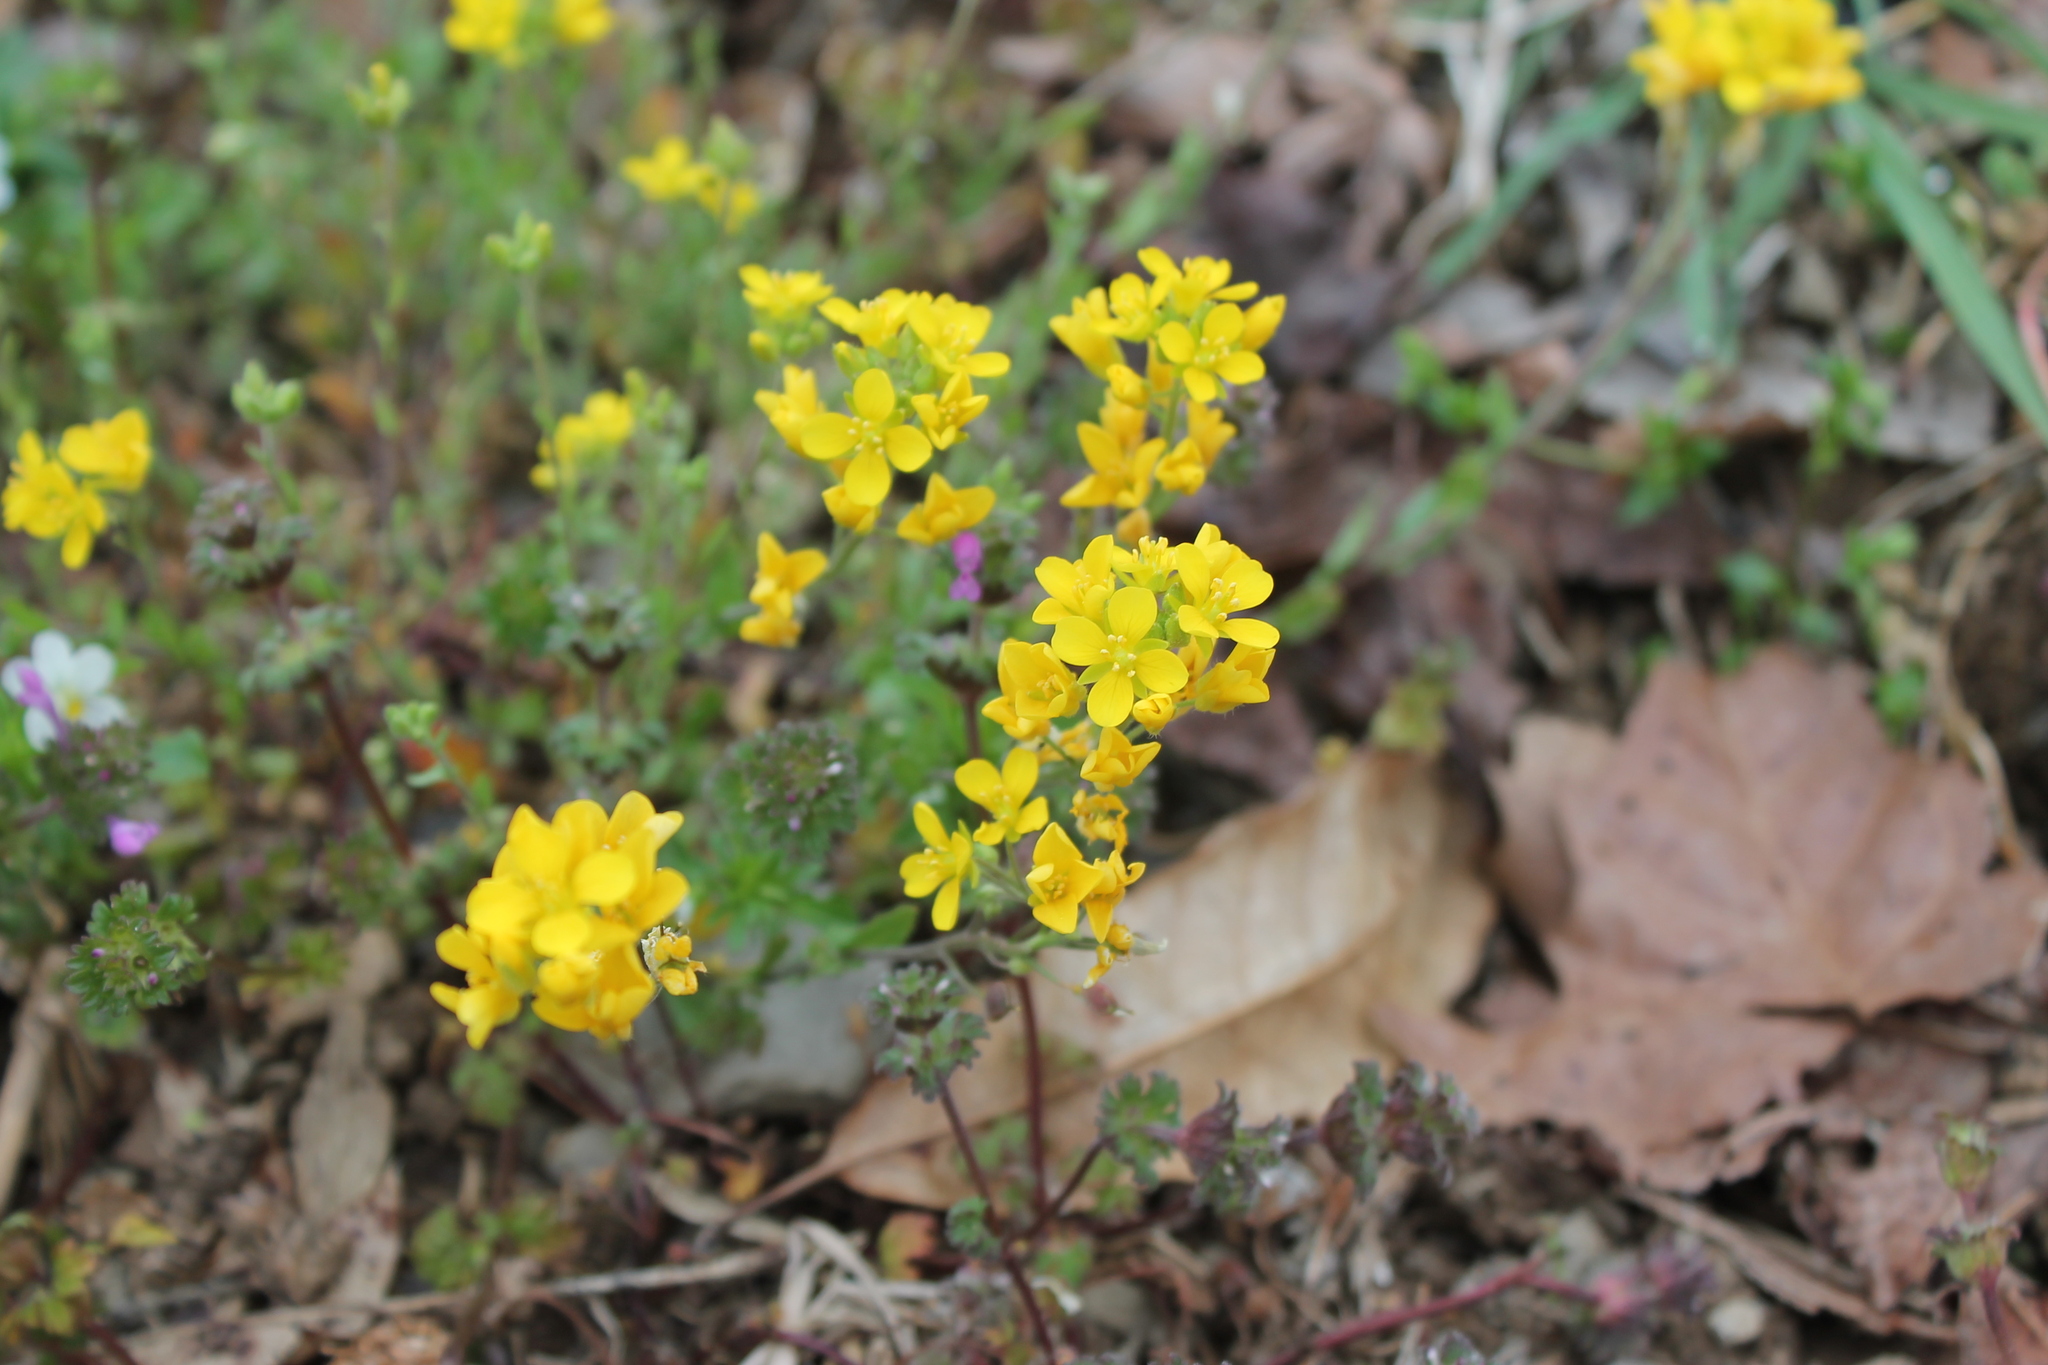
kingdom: Plantae
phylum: Tracheophyta
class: Magnoliopsida
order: Brassicales
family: Brassicaceae
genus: Paysonia
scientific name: Paysonia lescurii
